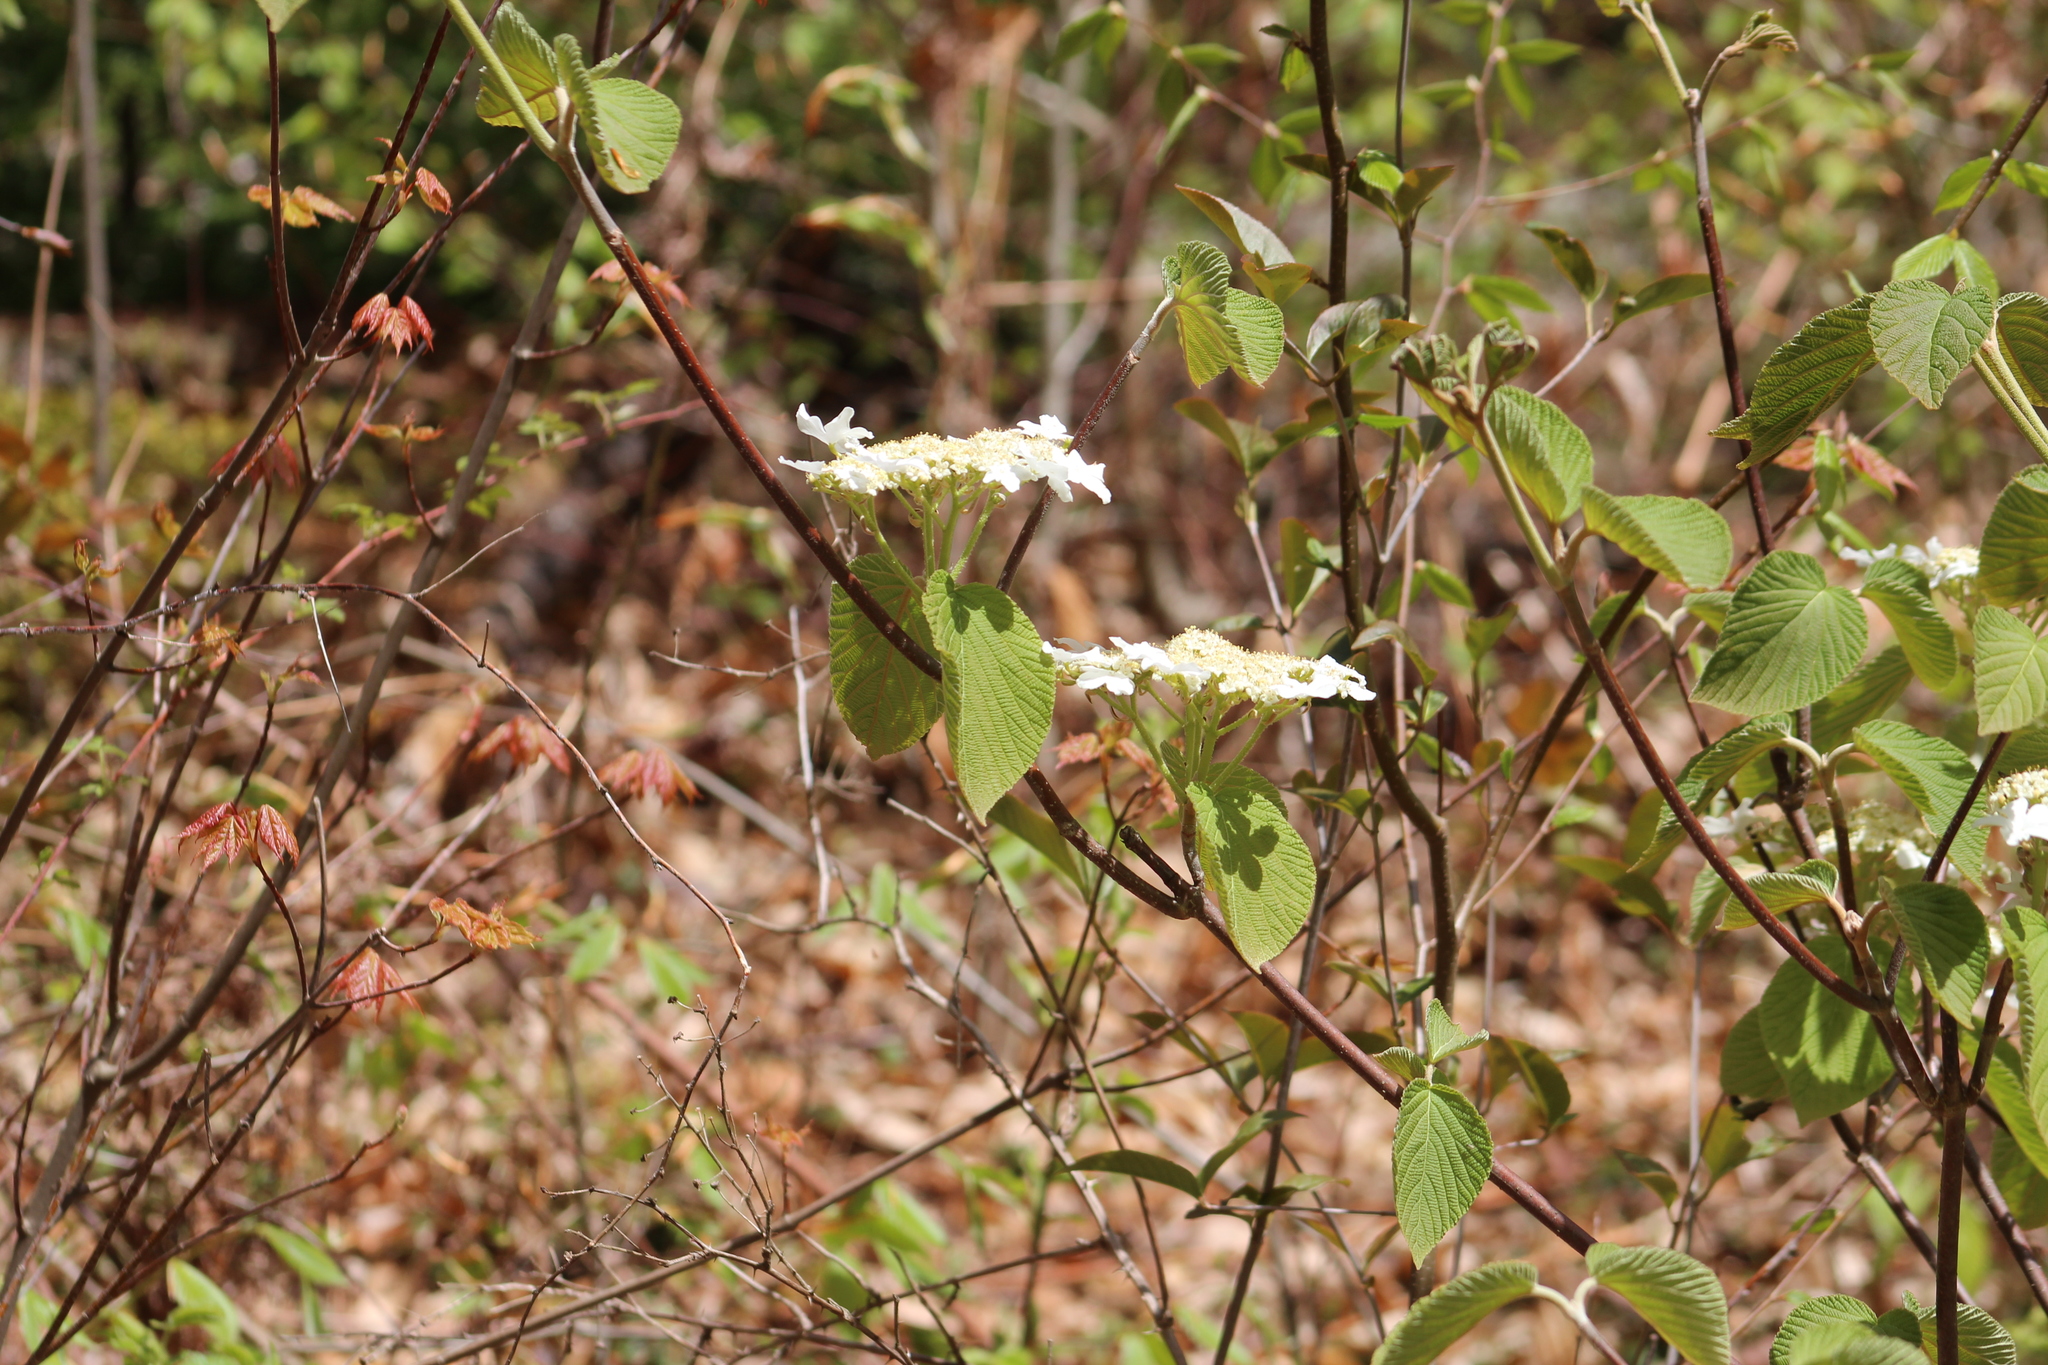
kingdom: Plantae
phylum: Tracheophyta
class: Magnoliopsida
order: Dipsacales
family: Viburnaceae
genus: Viburnum
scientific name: Viburnum lantanoides
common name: Hobblebush
